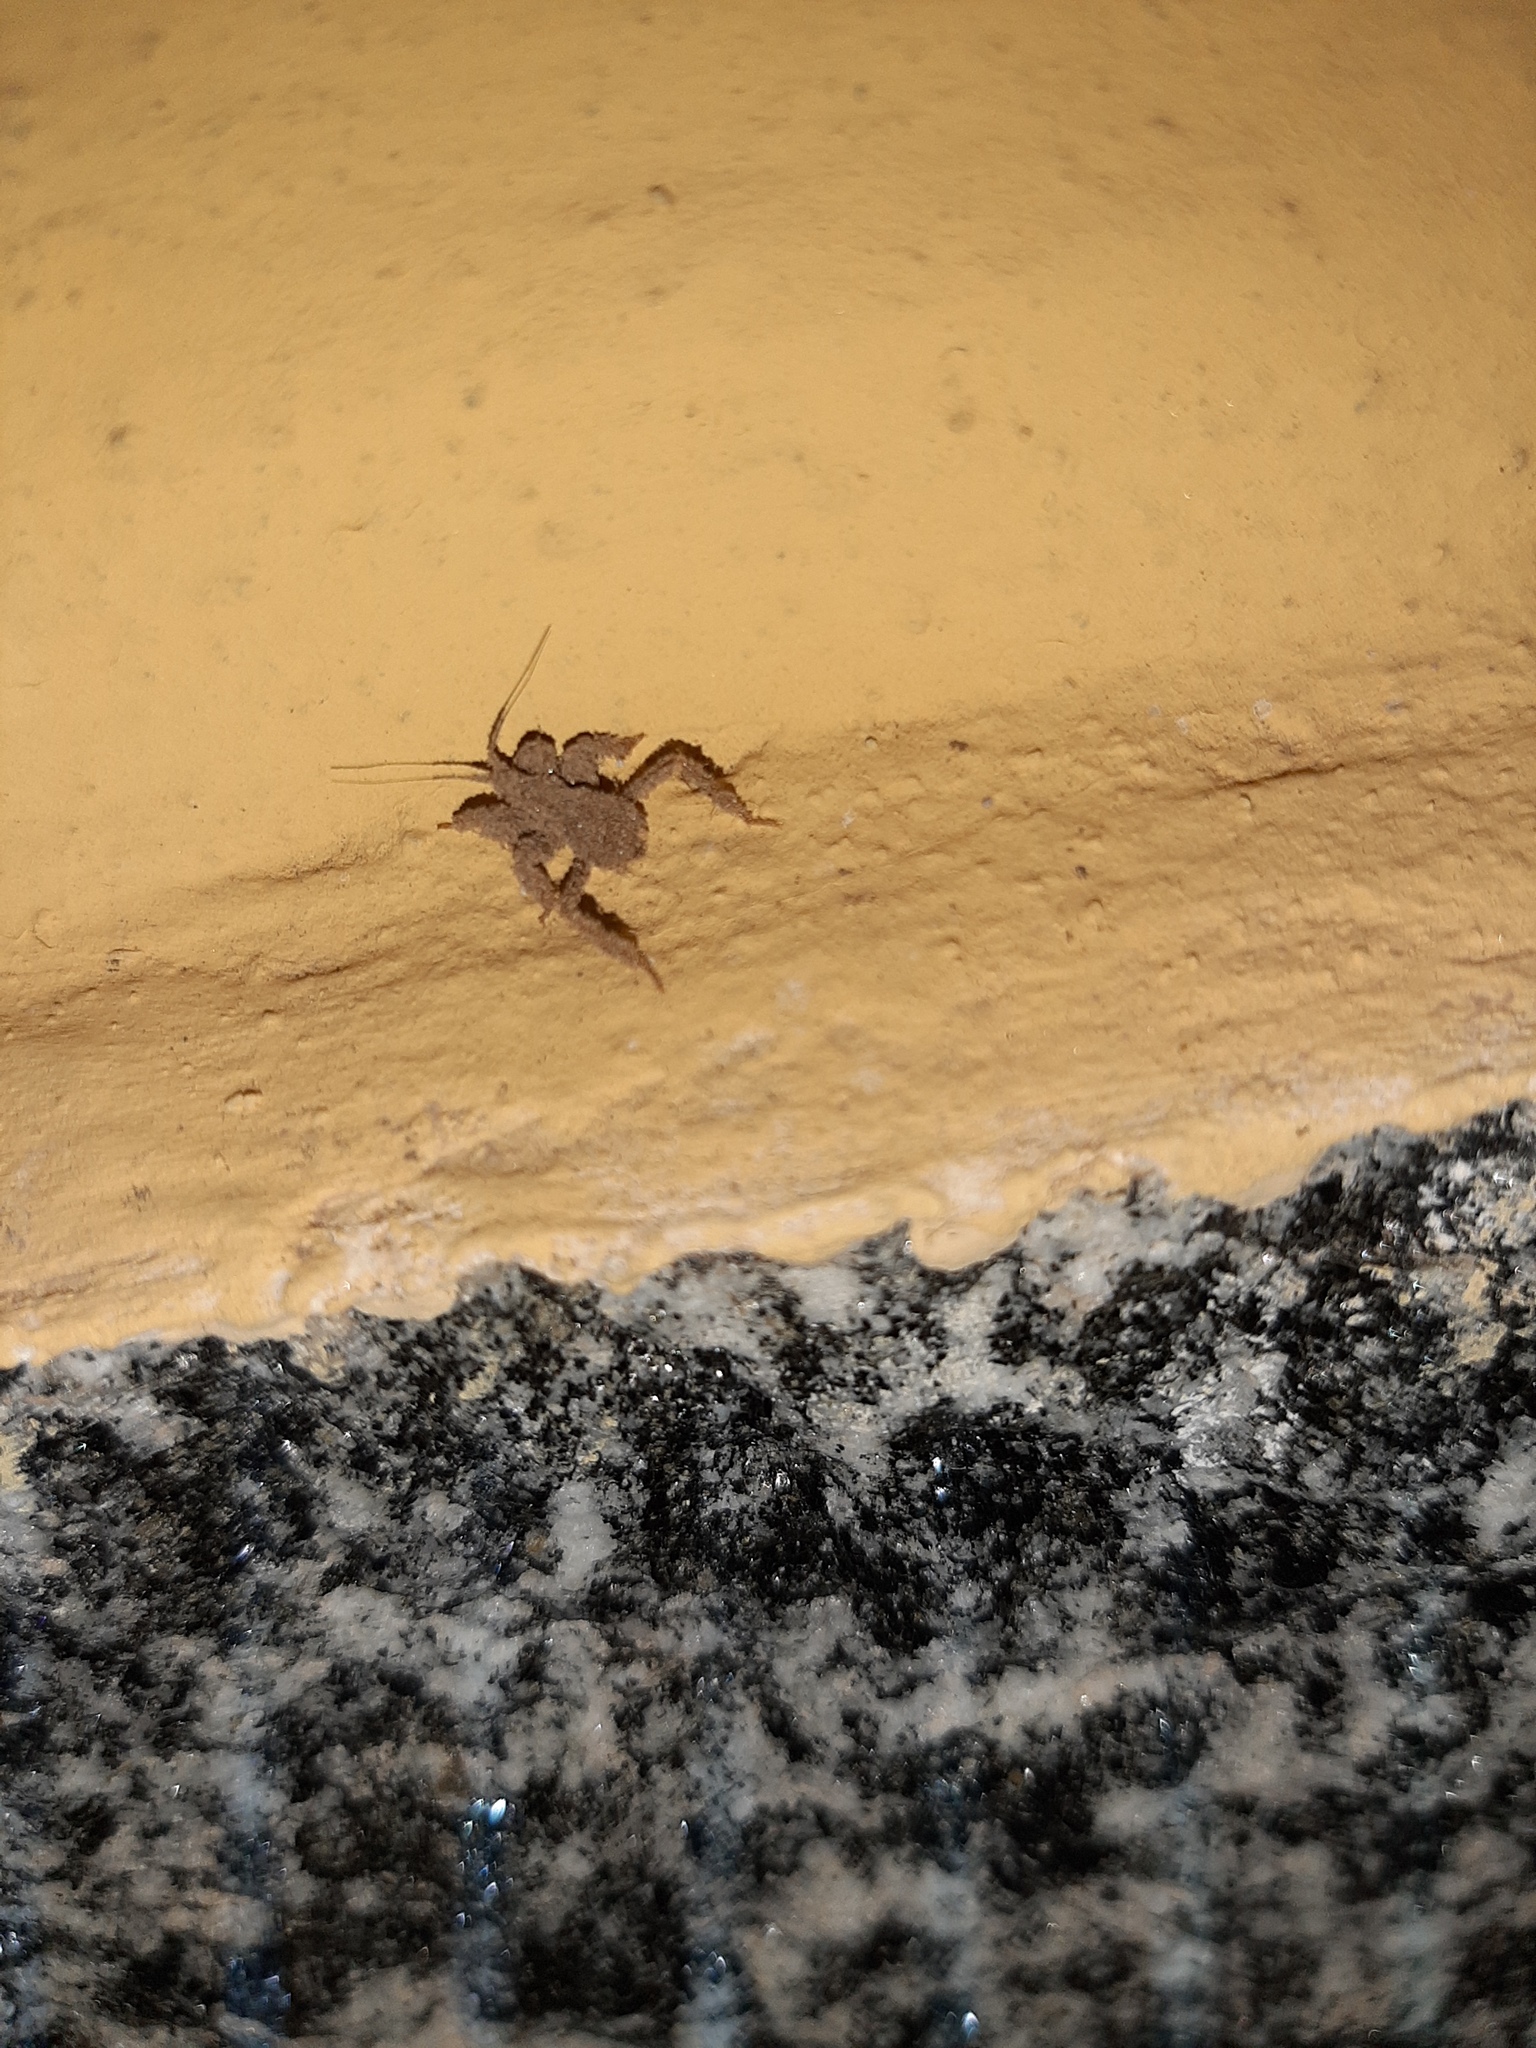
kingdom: Animalia
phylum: Arthropoda
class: Insecta
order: Hemiptera
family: Reduviidae
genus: Reduvius
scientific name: Reduvius personatus
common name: Masked hunter
